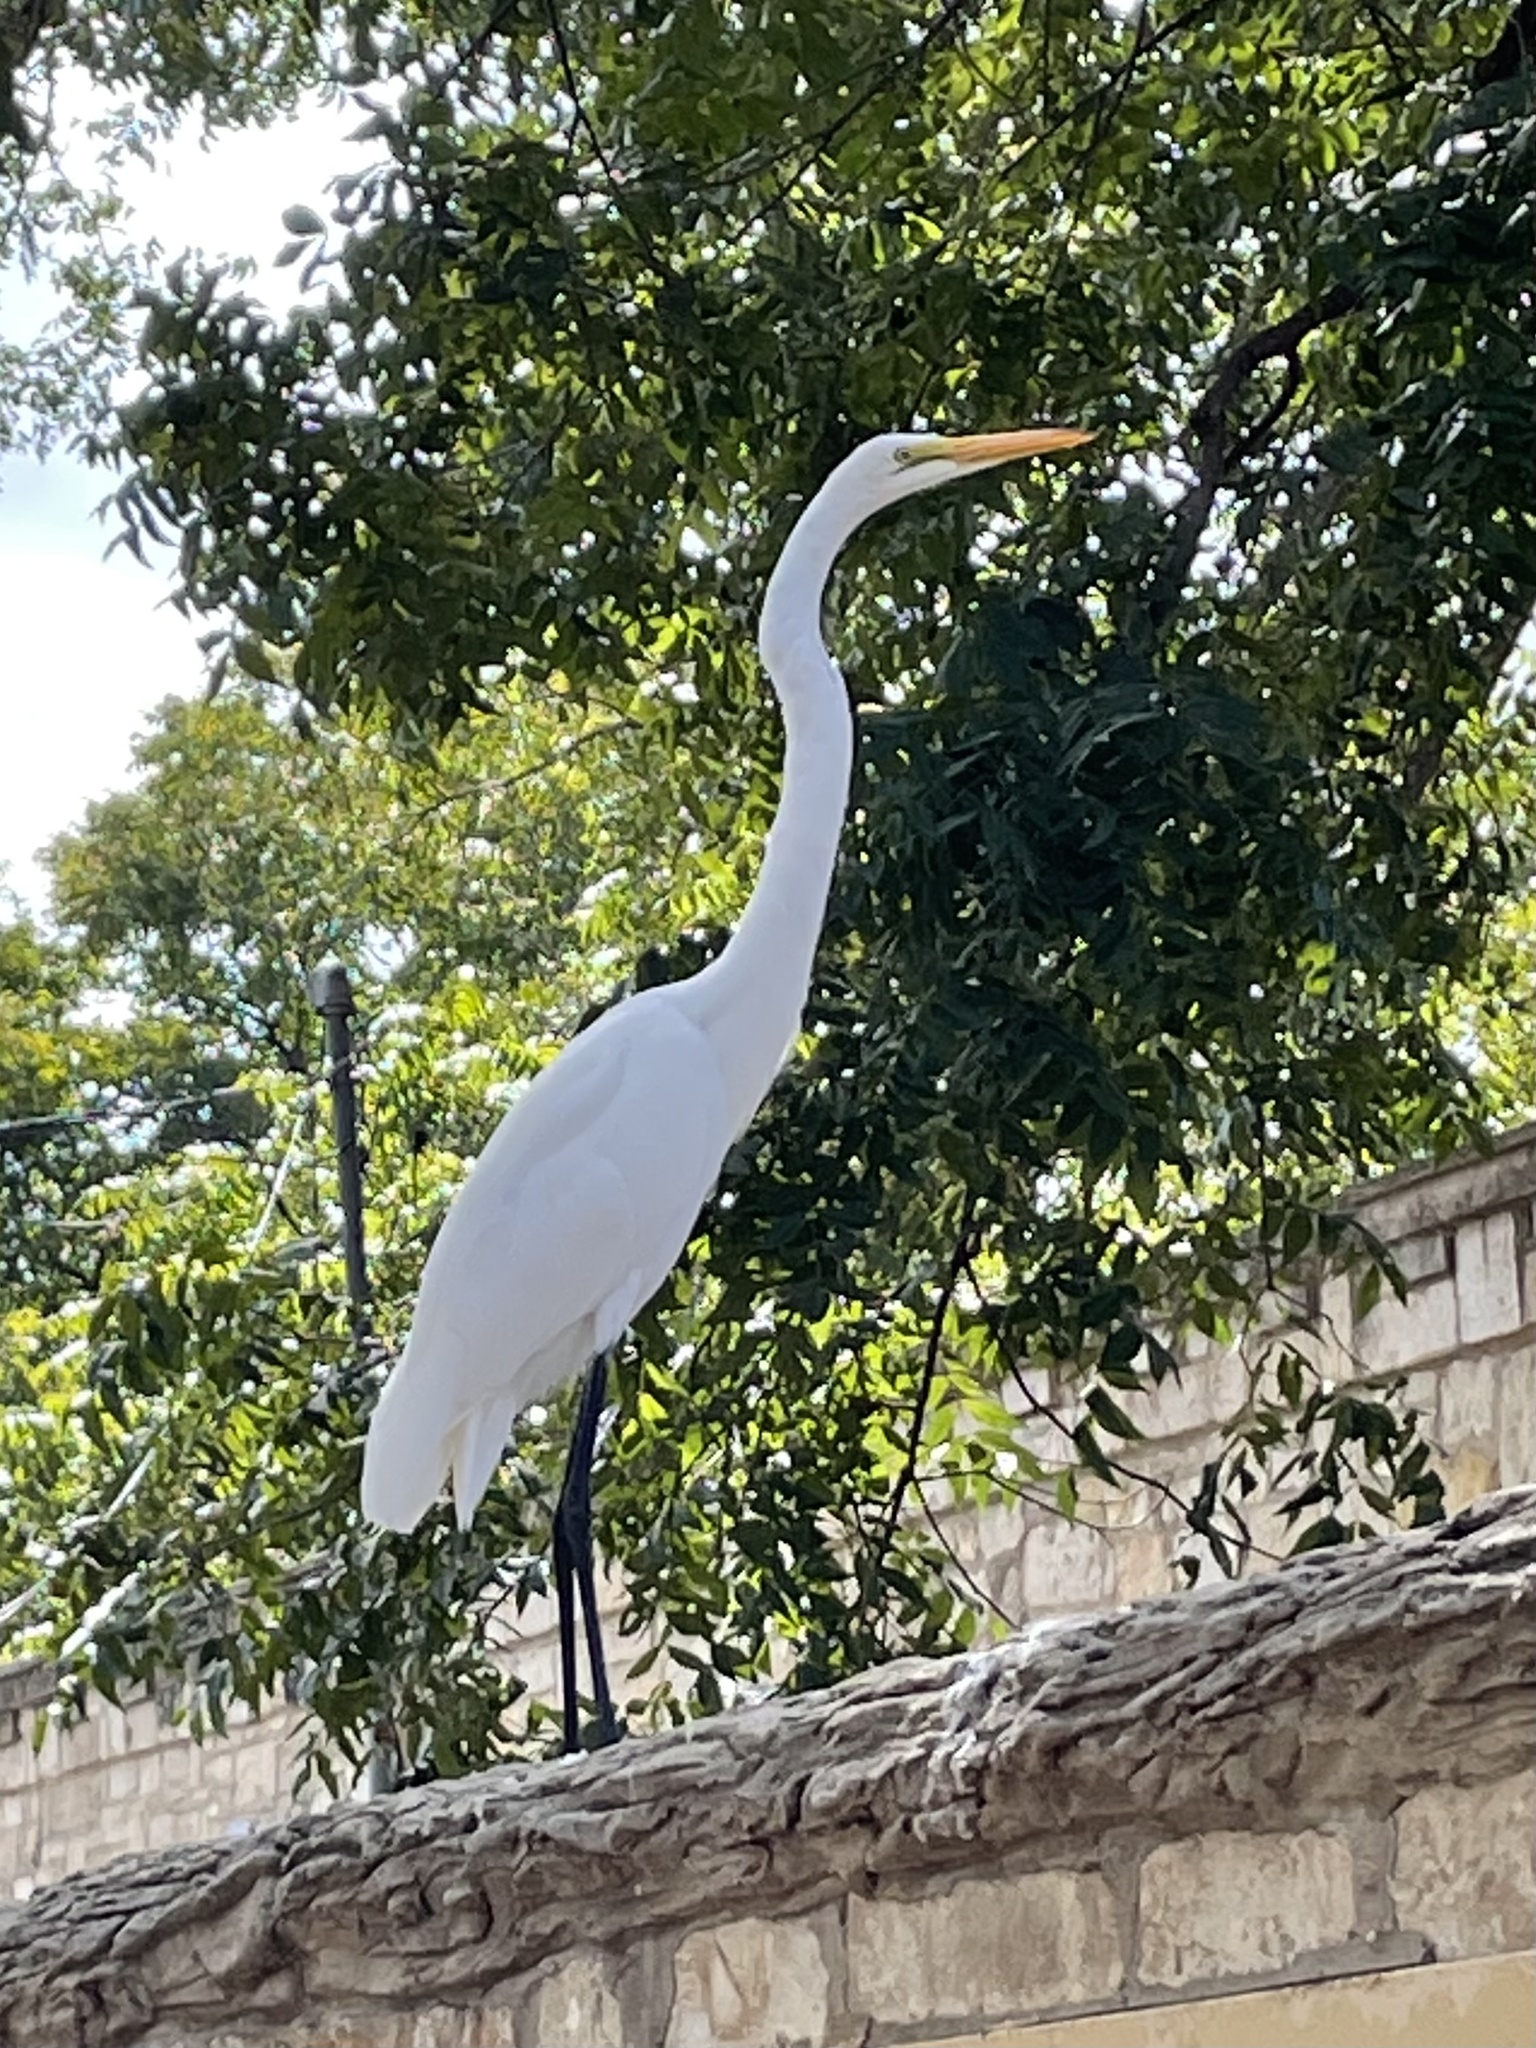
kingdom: Animalia
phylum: Chordata
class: Aves
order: Pelecaniformes
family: Ardeidae
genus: Ardea
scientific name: Ardea alba
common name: Great egret
